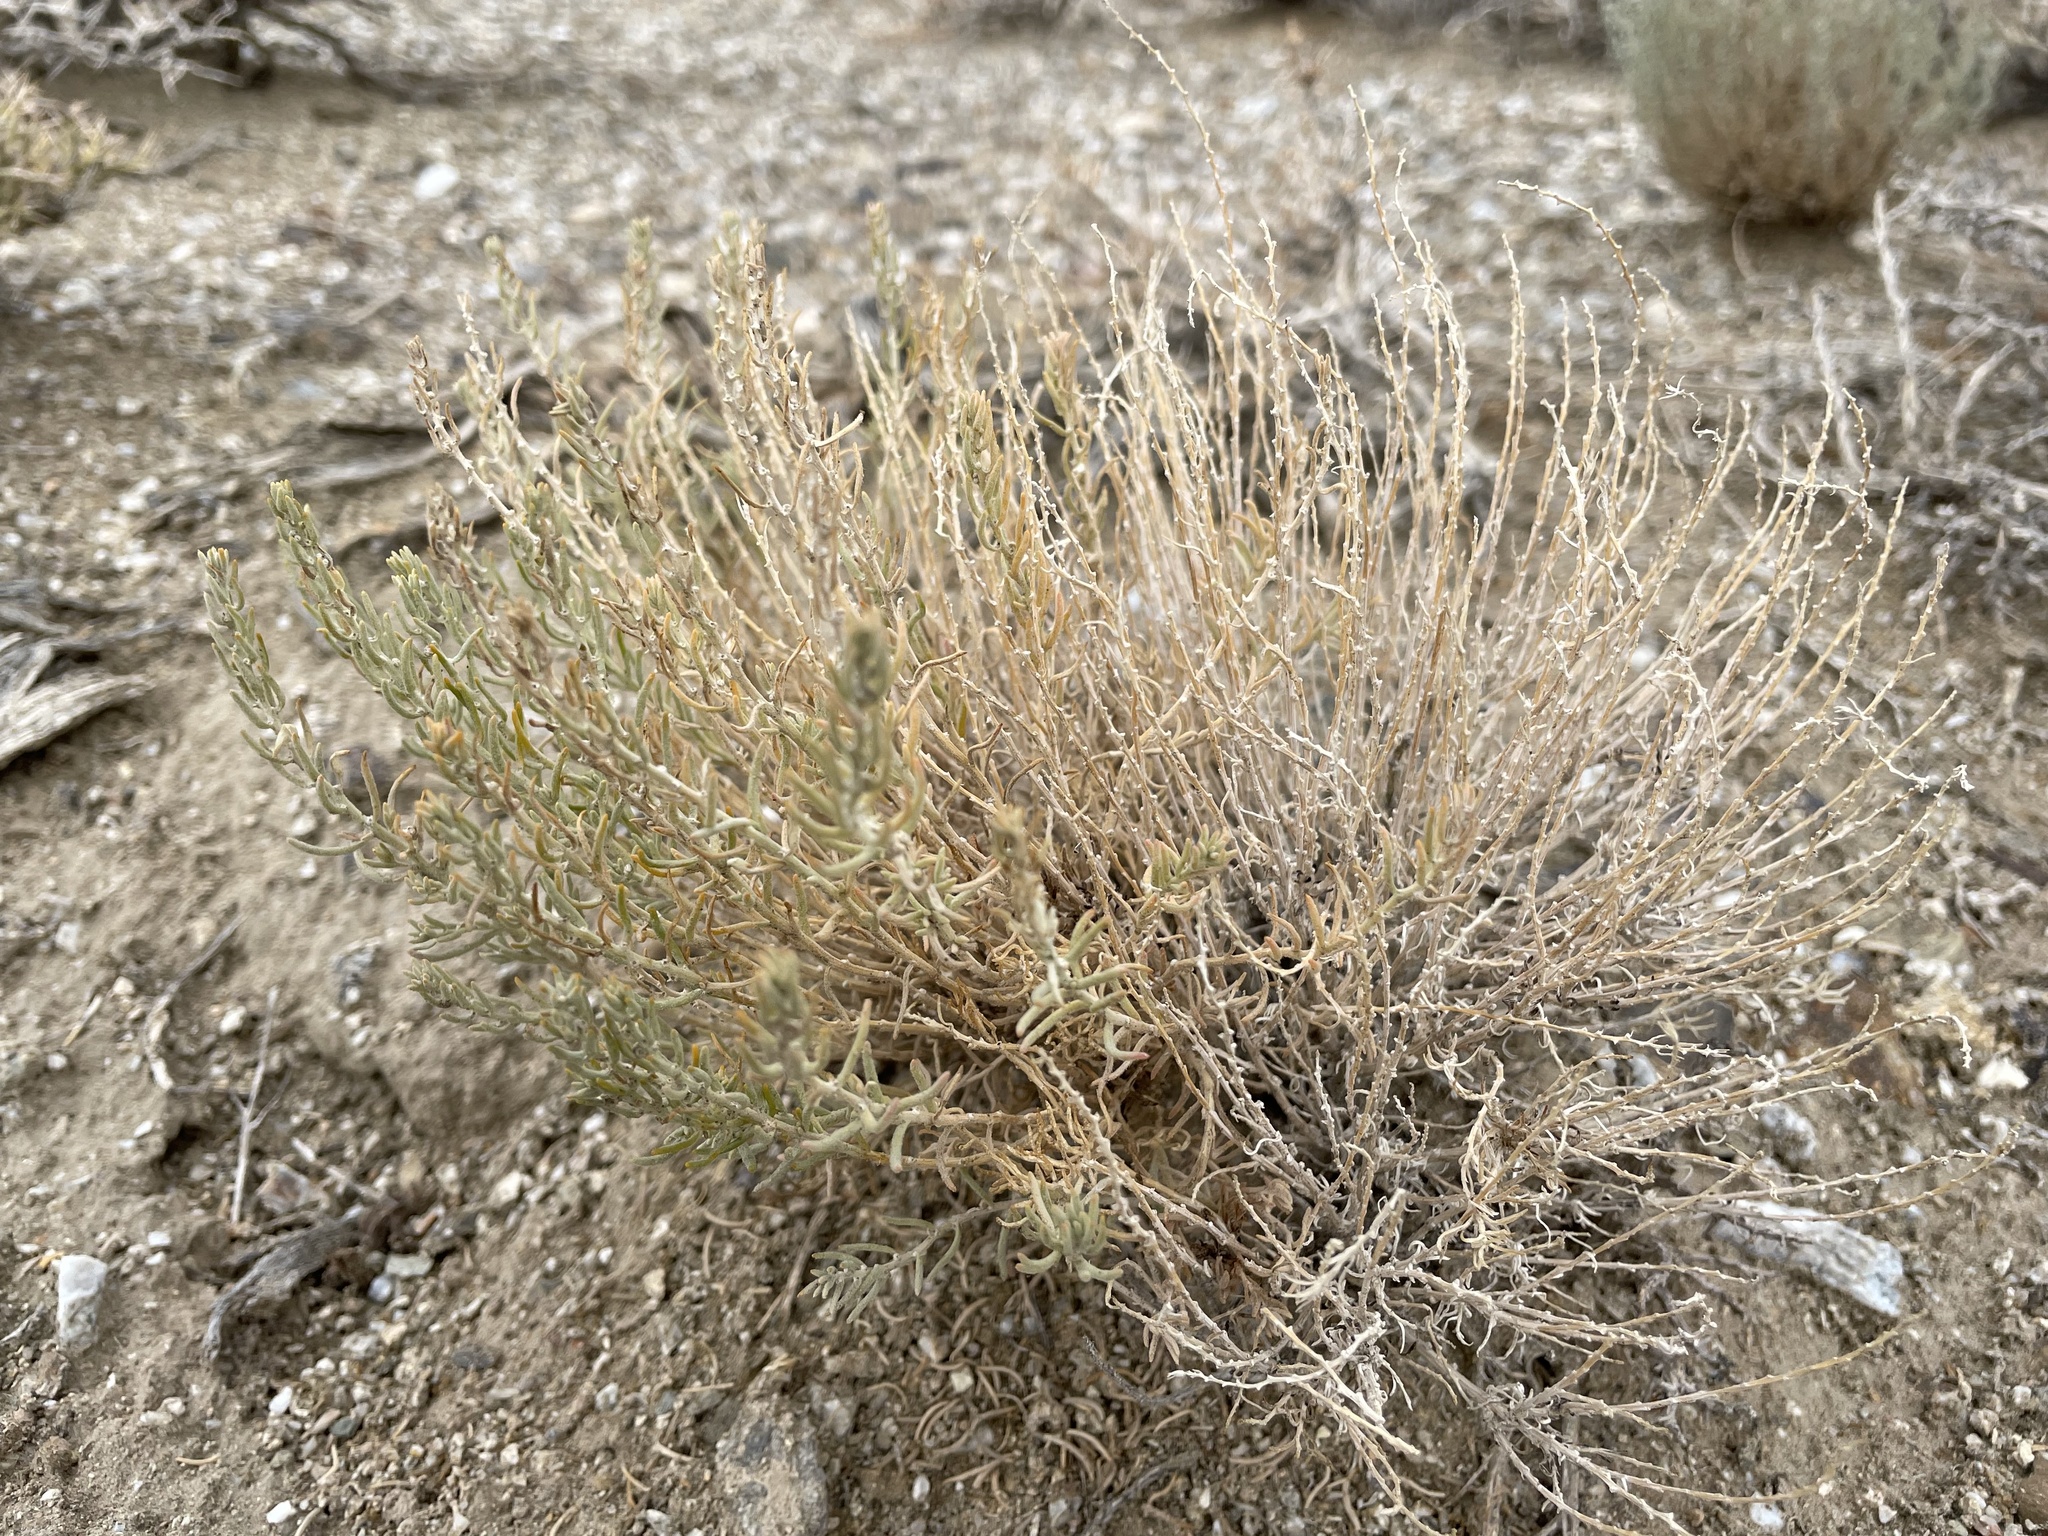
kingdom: Plantae
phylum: Tracheophyta
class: Magnoliopsida
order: Caryophyllales
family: Amaranthaceae
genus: Neokochia
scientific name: Neokochia americana
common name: Perennial summer-cypress
